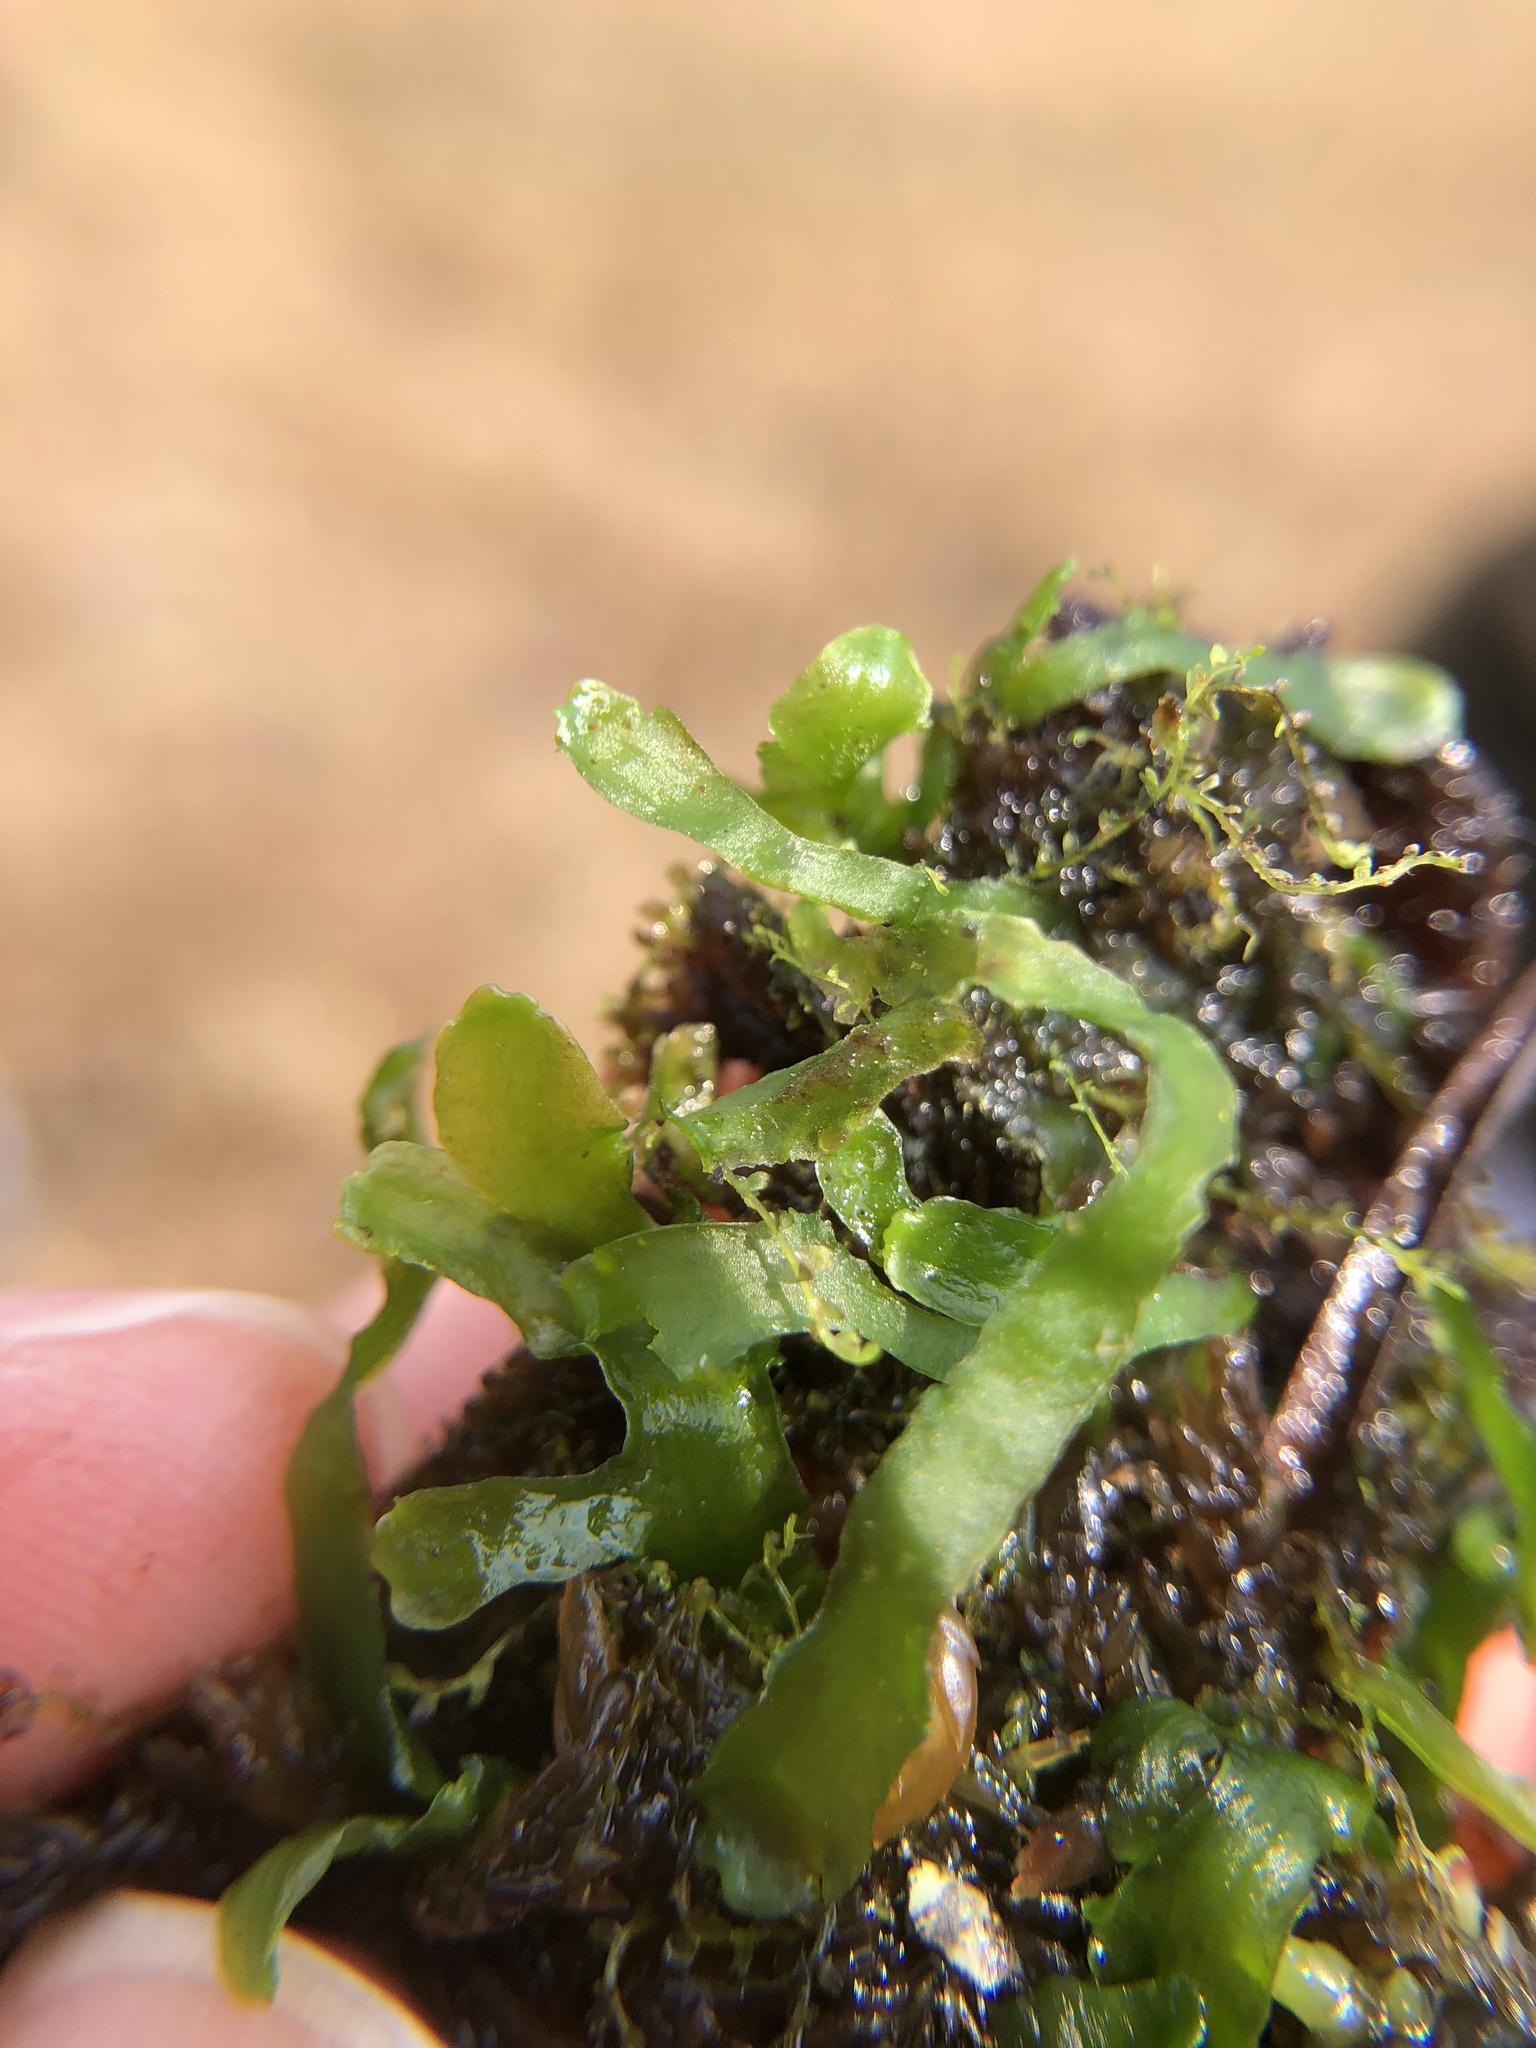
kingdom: Plantae
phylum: Marchantiophyta
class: Jungermanniopsida
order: Metzgeriales
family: Aneuraceae
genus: Aneura
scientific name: Aneura pinguis
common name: Common greasewort
